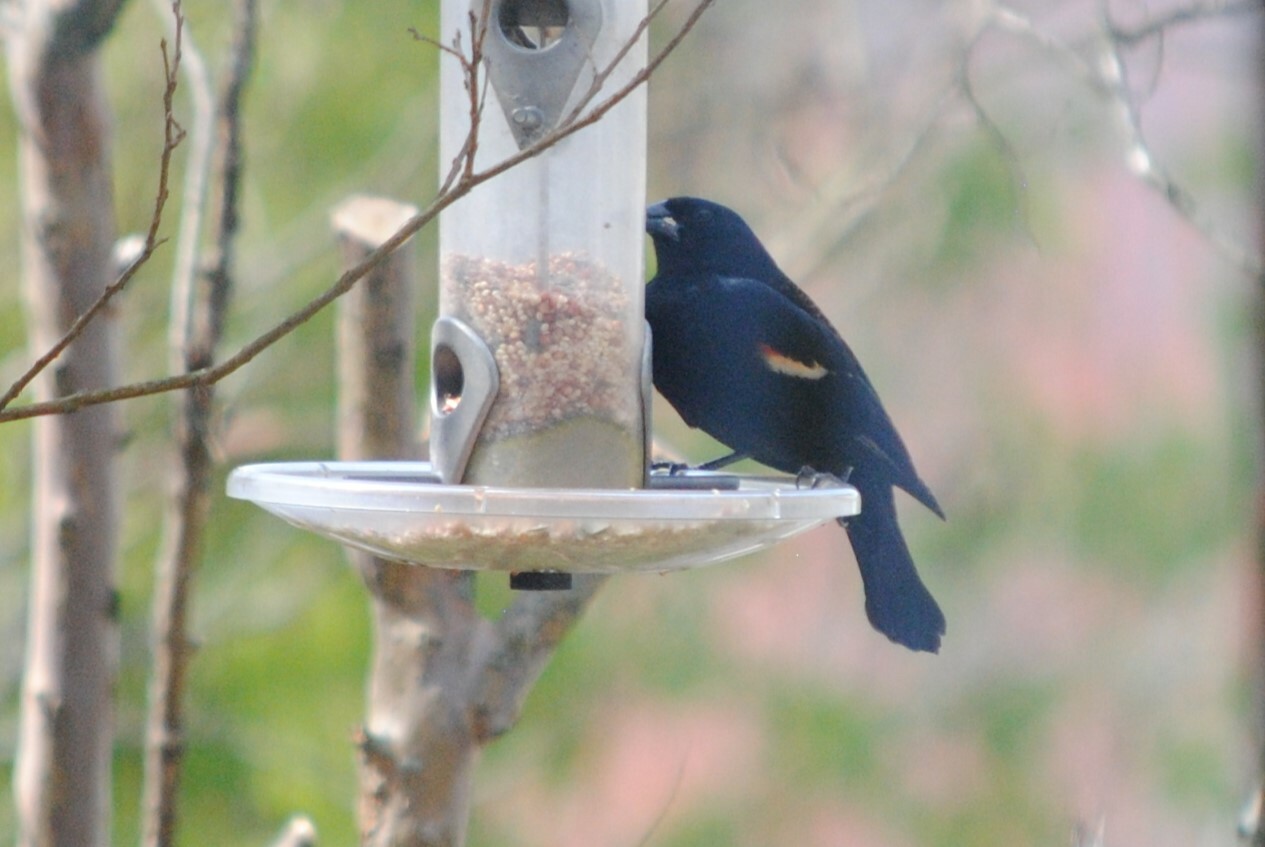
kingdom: Animalia
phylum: Chordata
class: Aves
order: Passeriformes
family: Icteridae
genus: Agelaius
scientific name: Agelaius phoeniceus
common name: Red-winged blackbird
